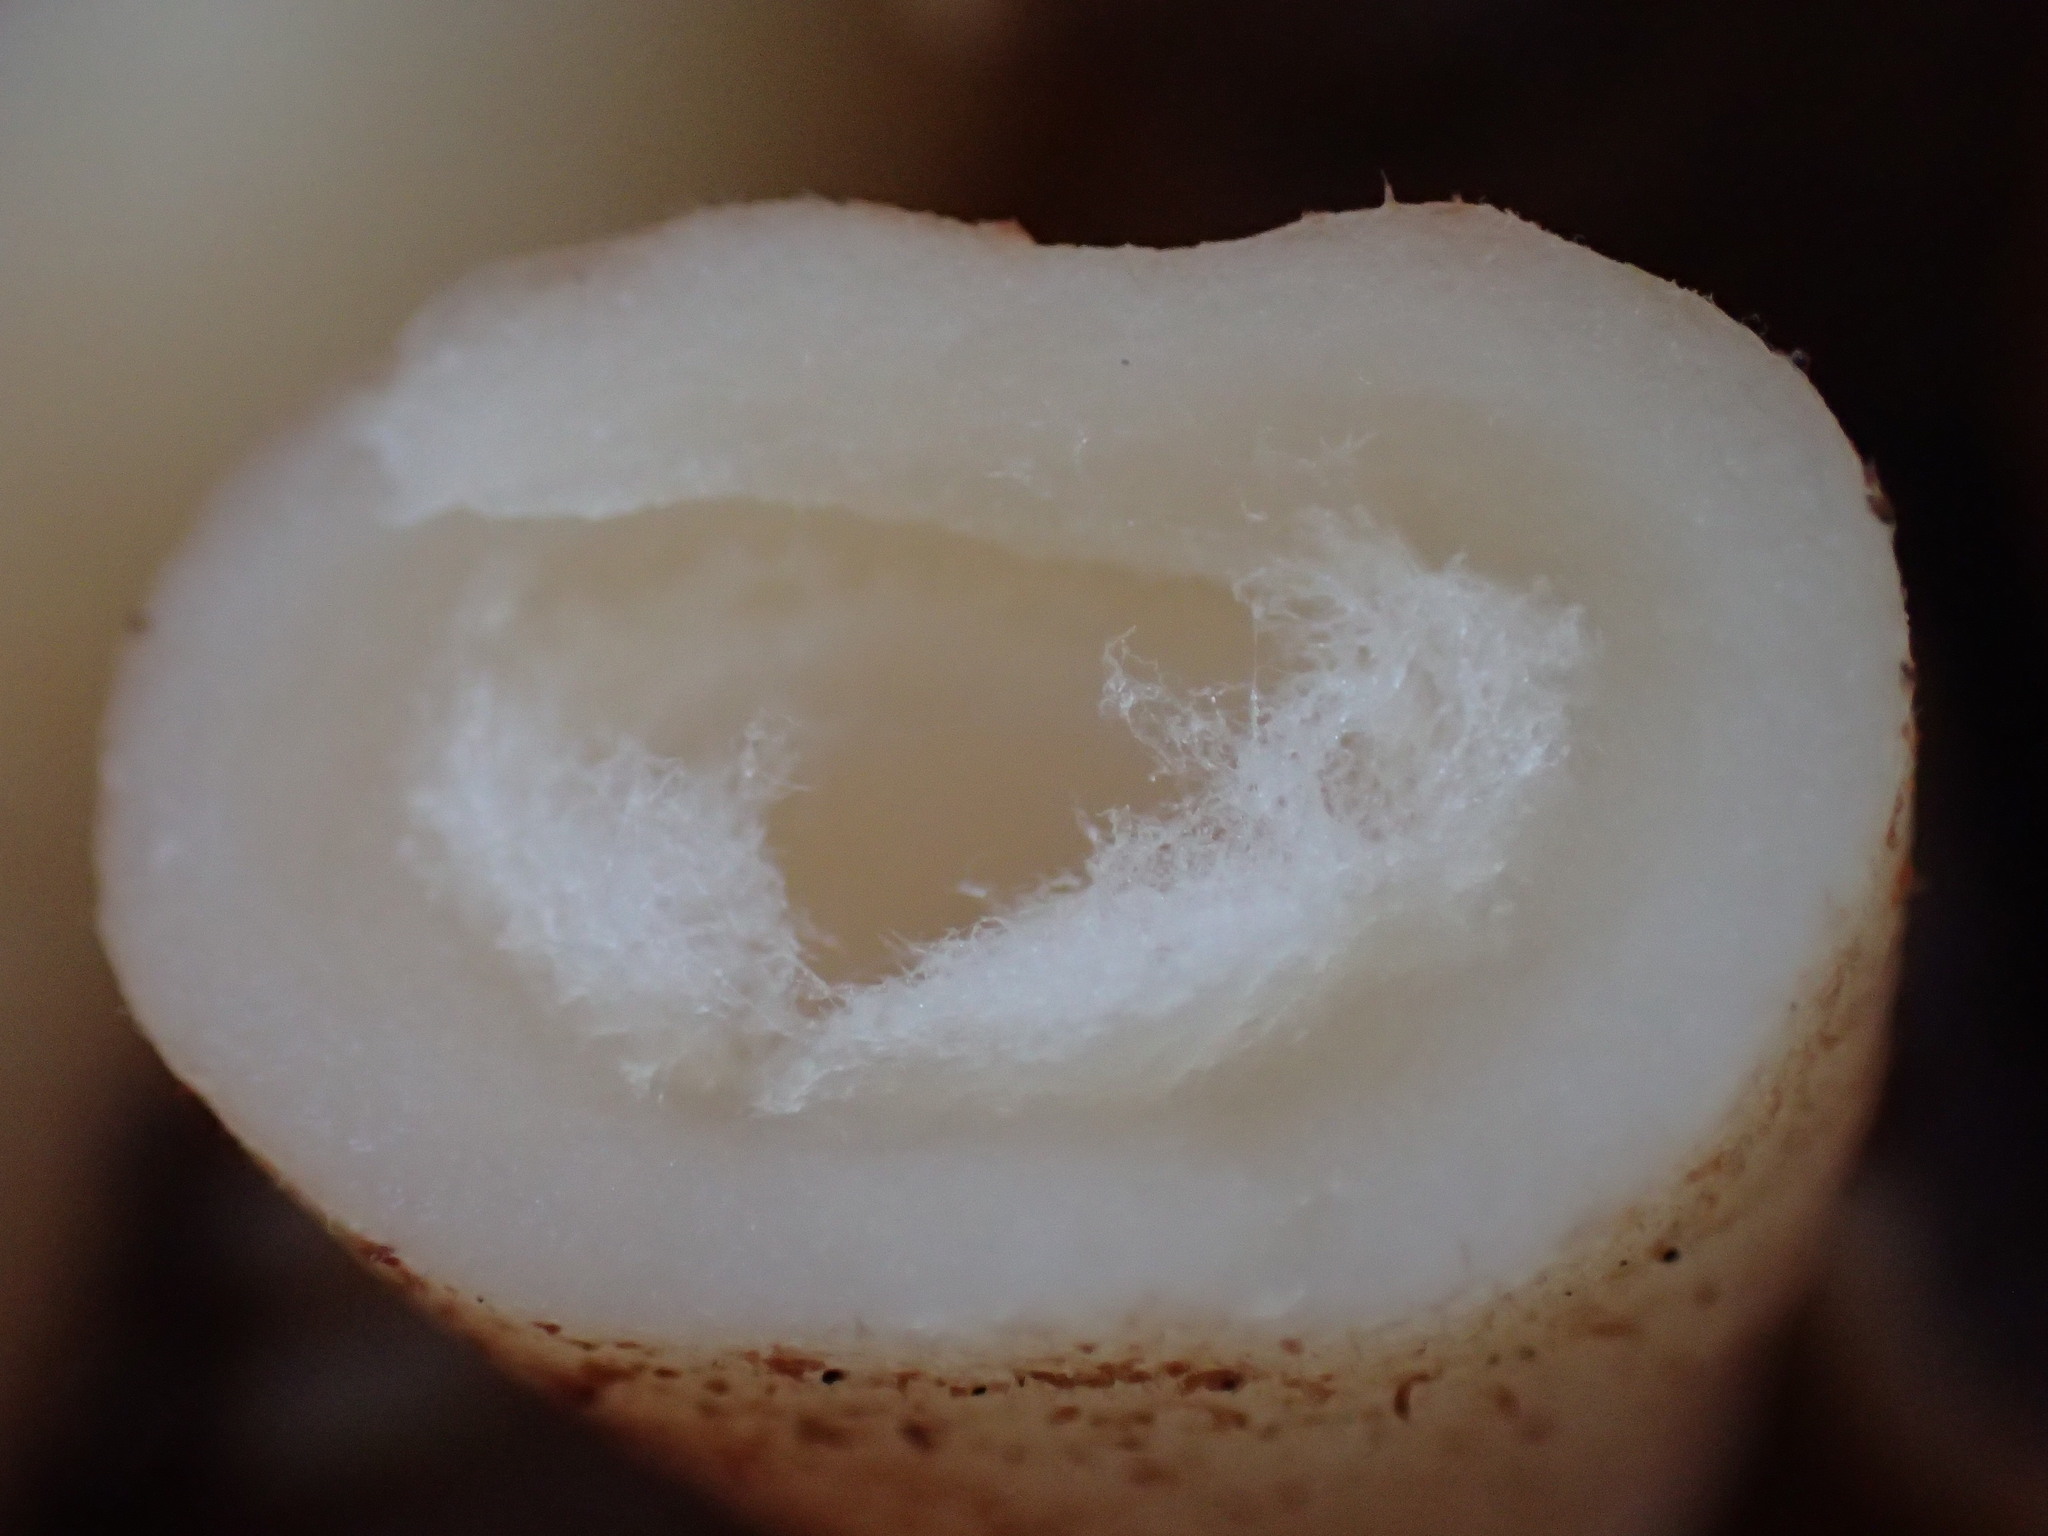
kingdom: Fungi
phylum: Ascomycota
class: Pezizomycetes
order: Pezizales
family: Morchellaceae
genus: Verpa
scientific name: Verpa bohemica
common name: Wrinkled thimble morel
